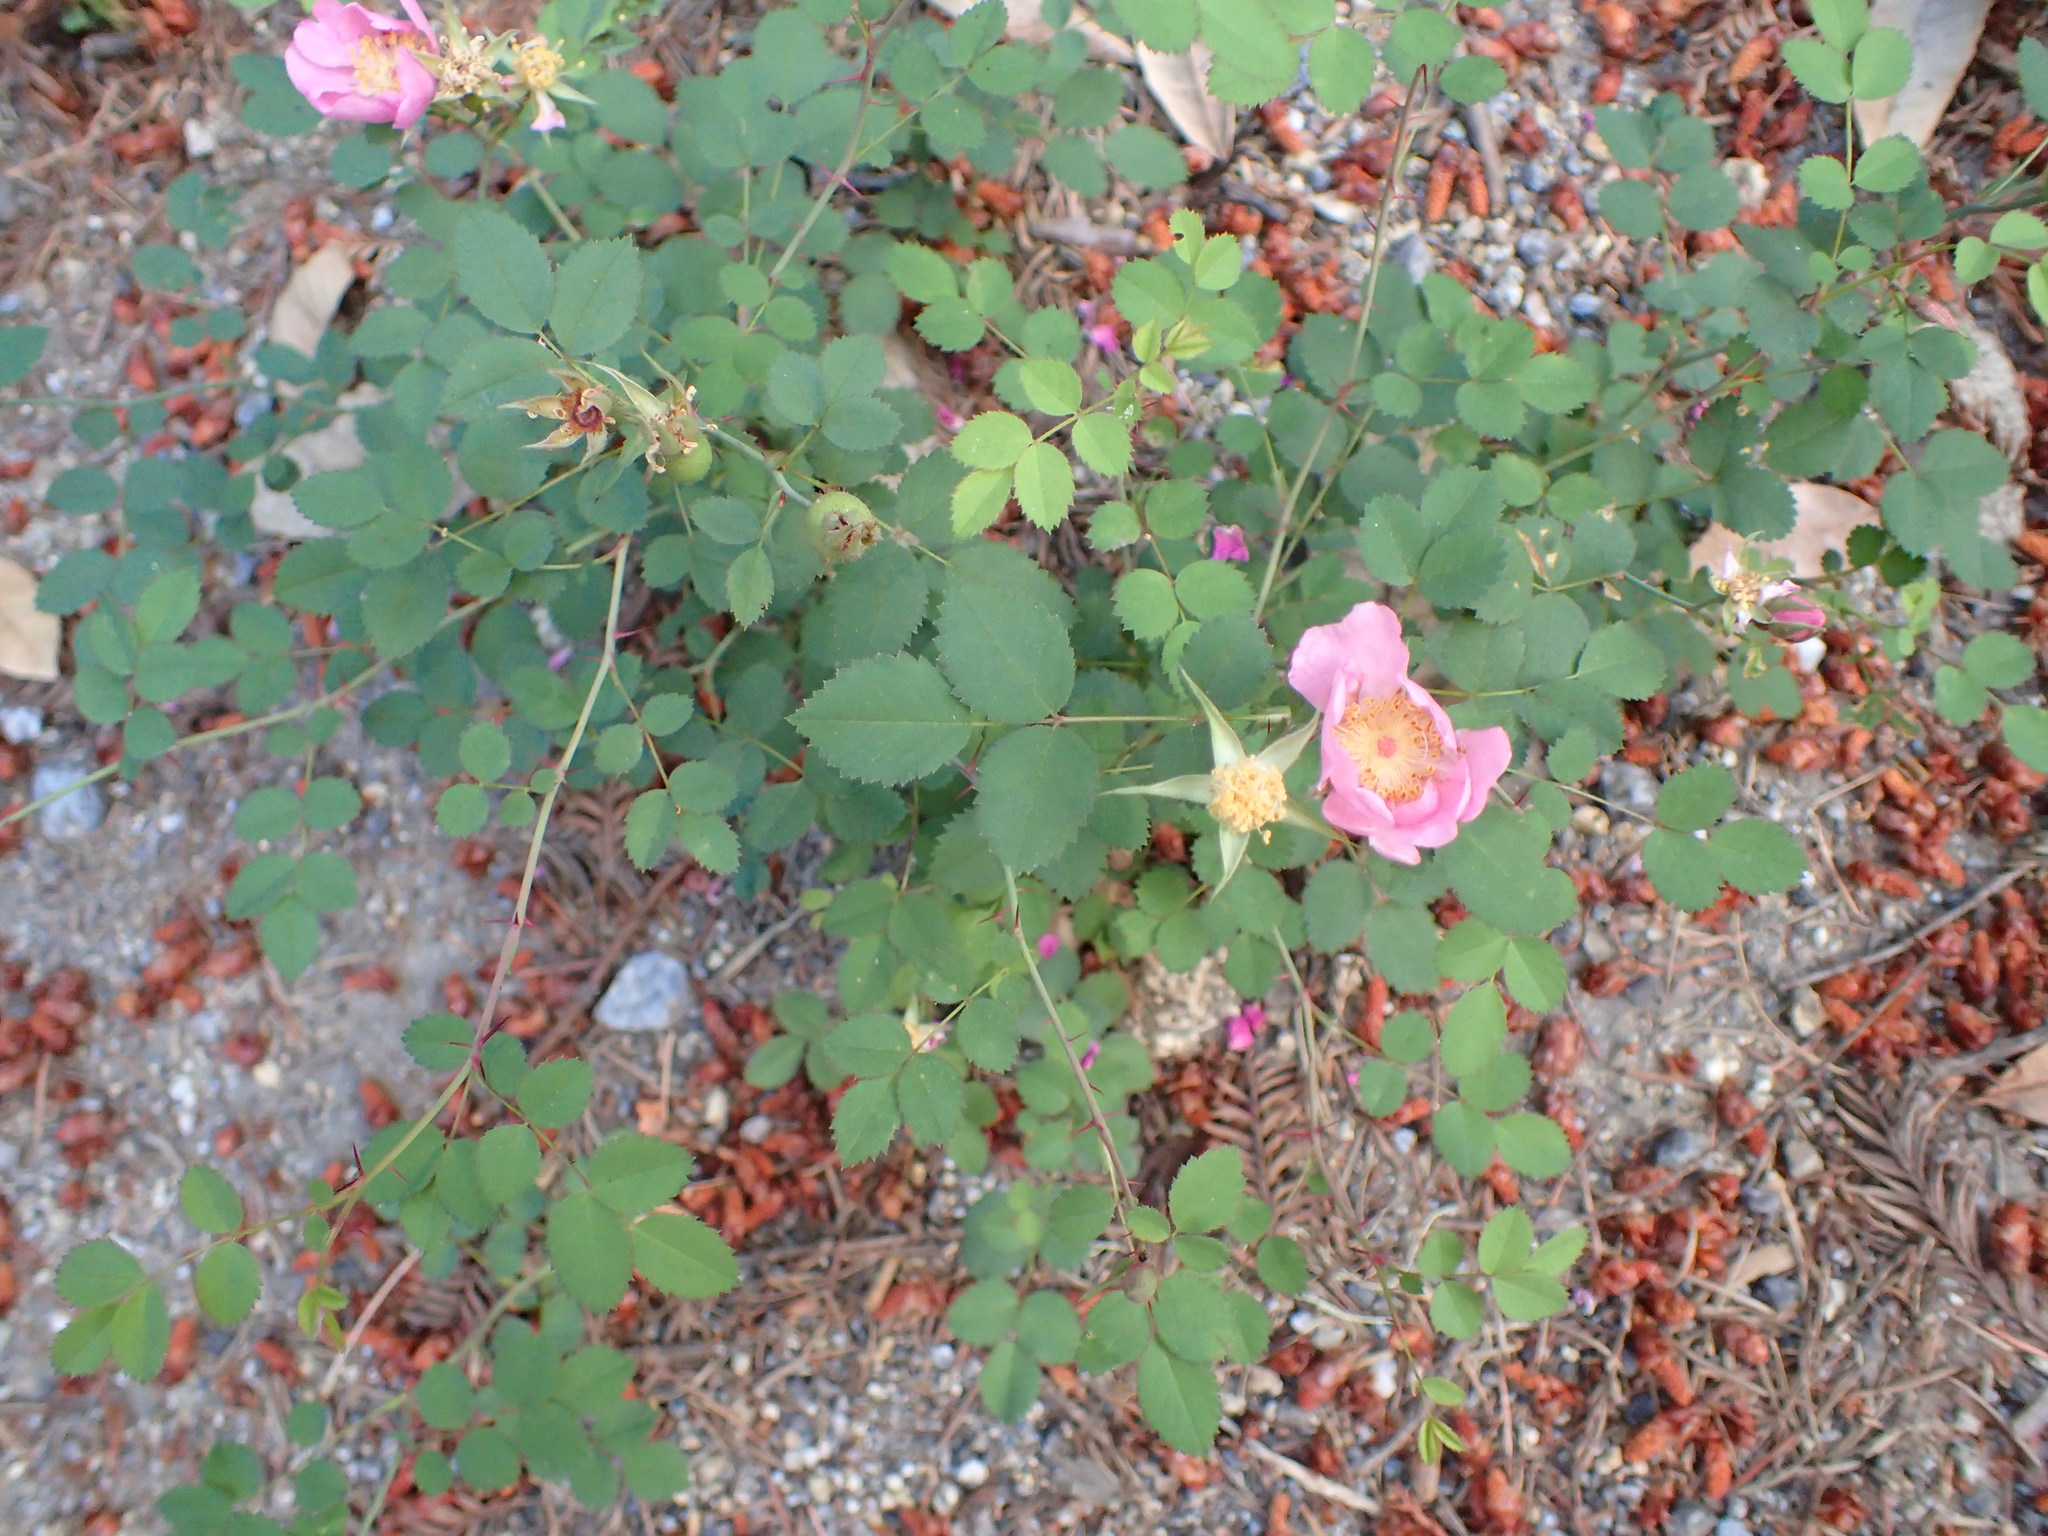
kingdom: Plantae
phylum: Tracheophyta
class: Magnoliopsida
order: Rosales
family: Rosaceae
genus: Rosa
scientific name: Rosa spithamea
